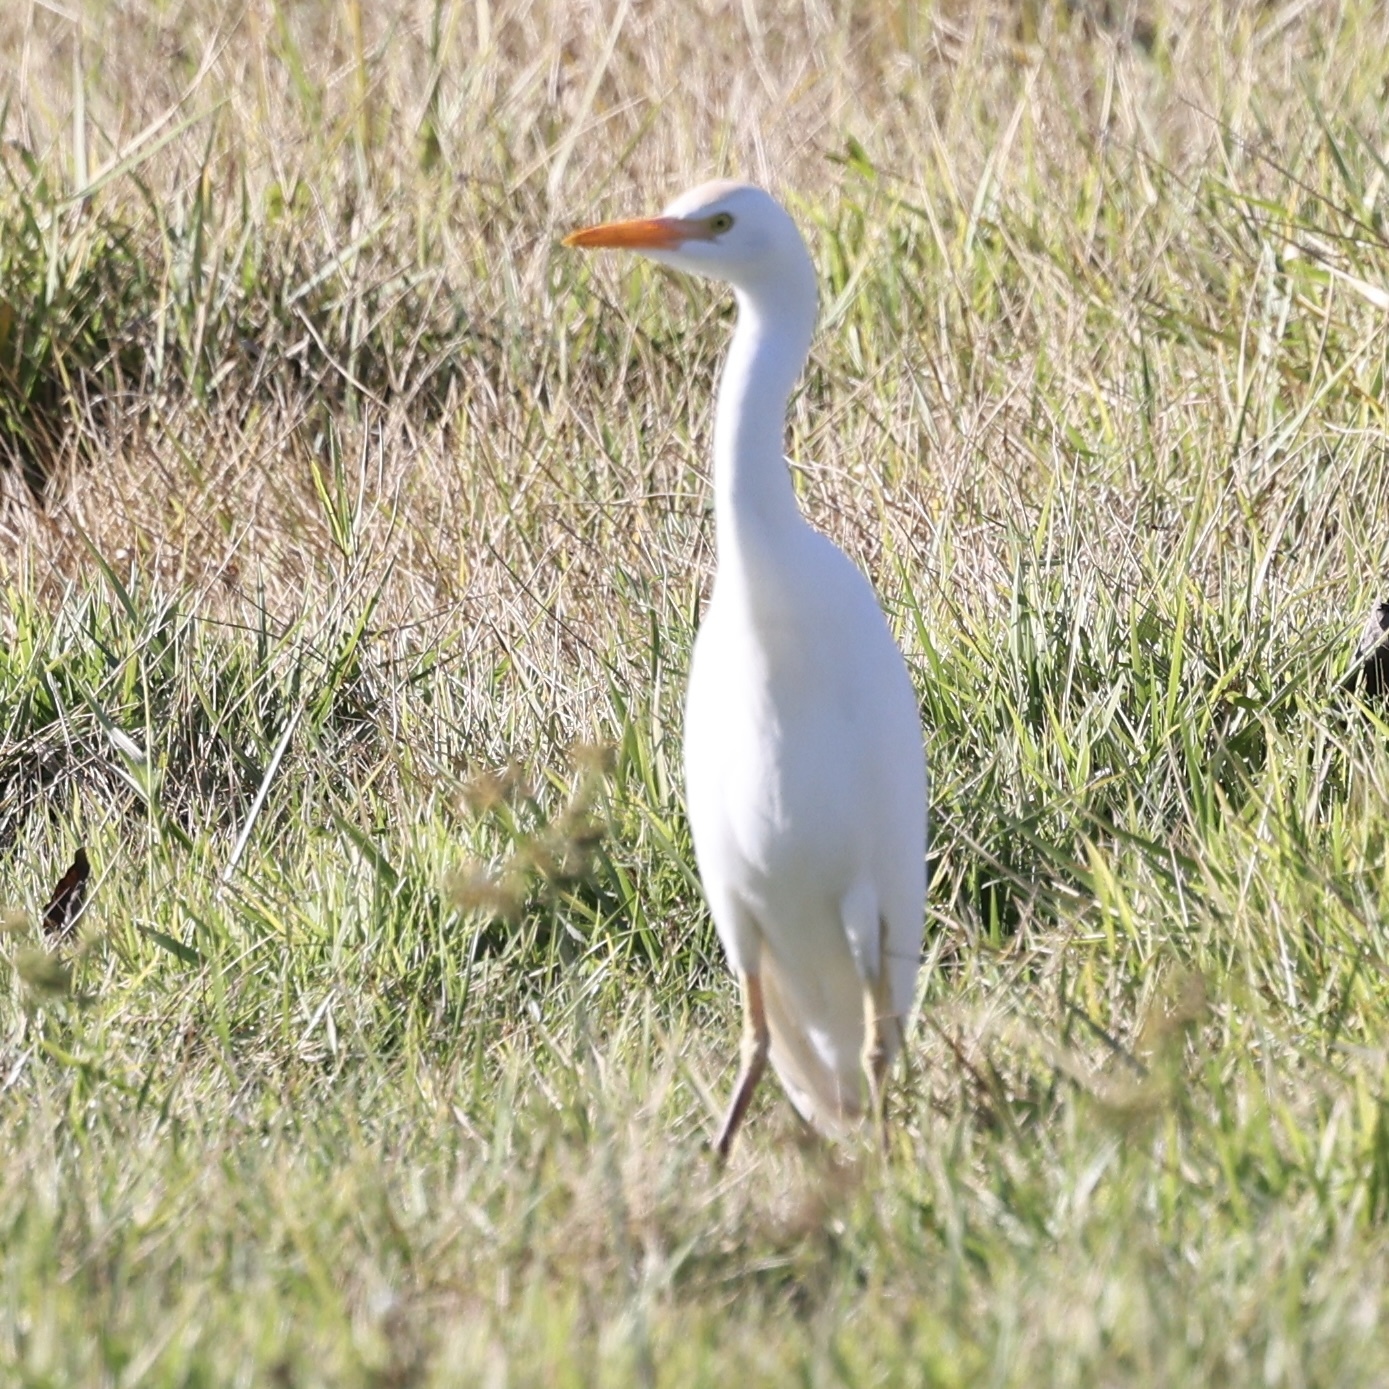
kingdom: Animalia
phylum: Chordata
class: Aves
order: Pelecaniformes
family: Ardeidae
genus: Bubulcus
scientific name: Bubulcus ibis
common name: Cattle egret
